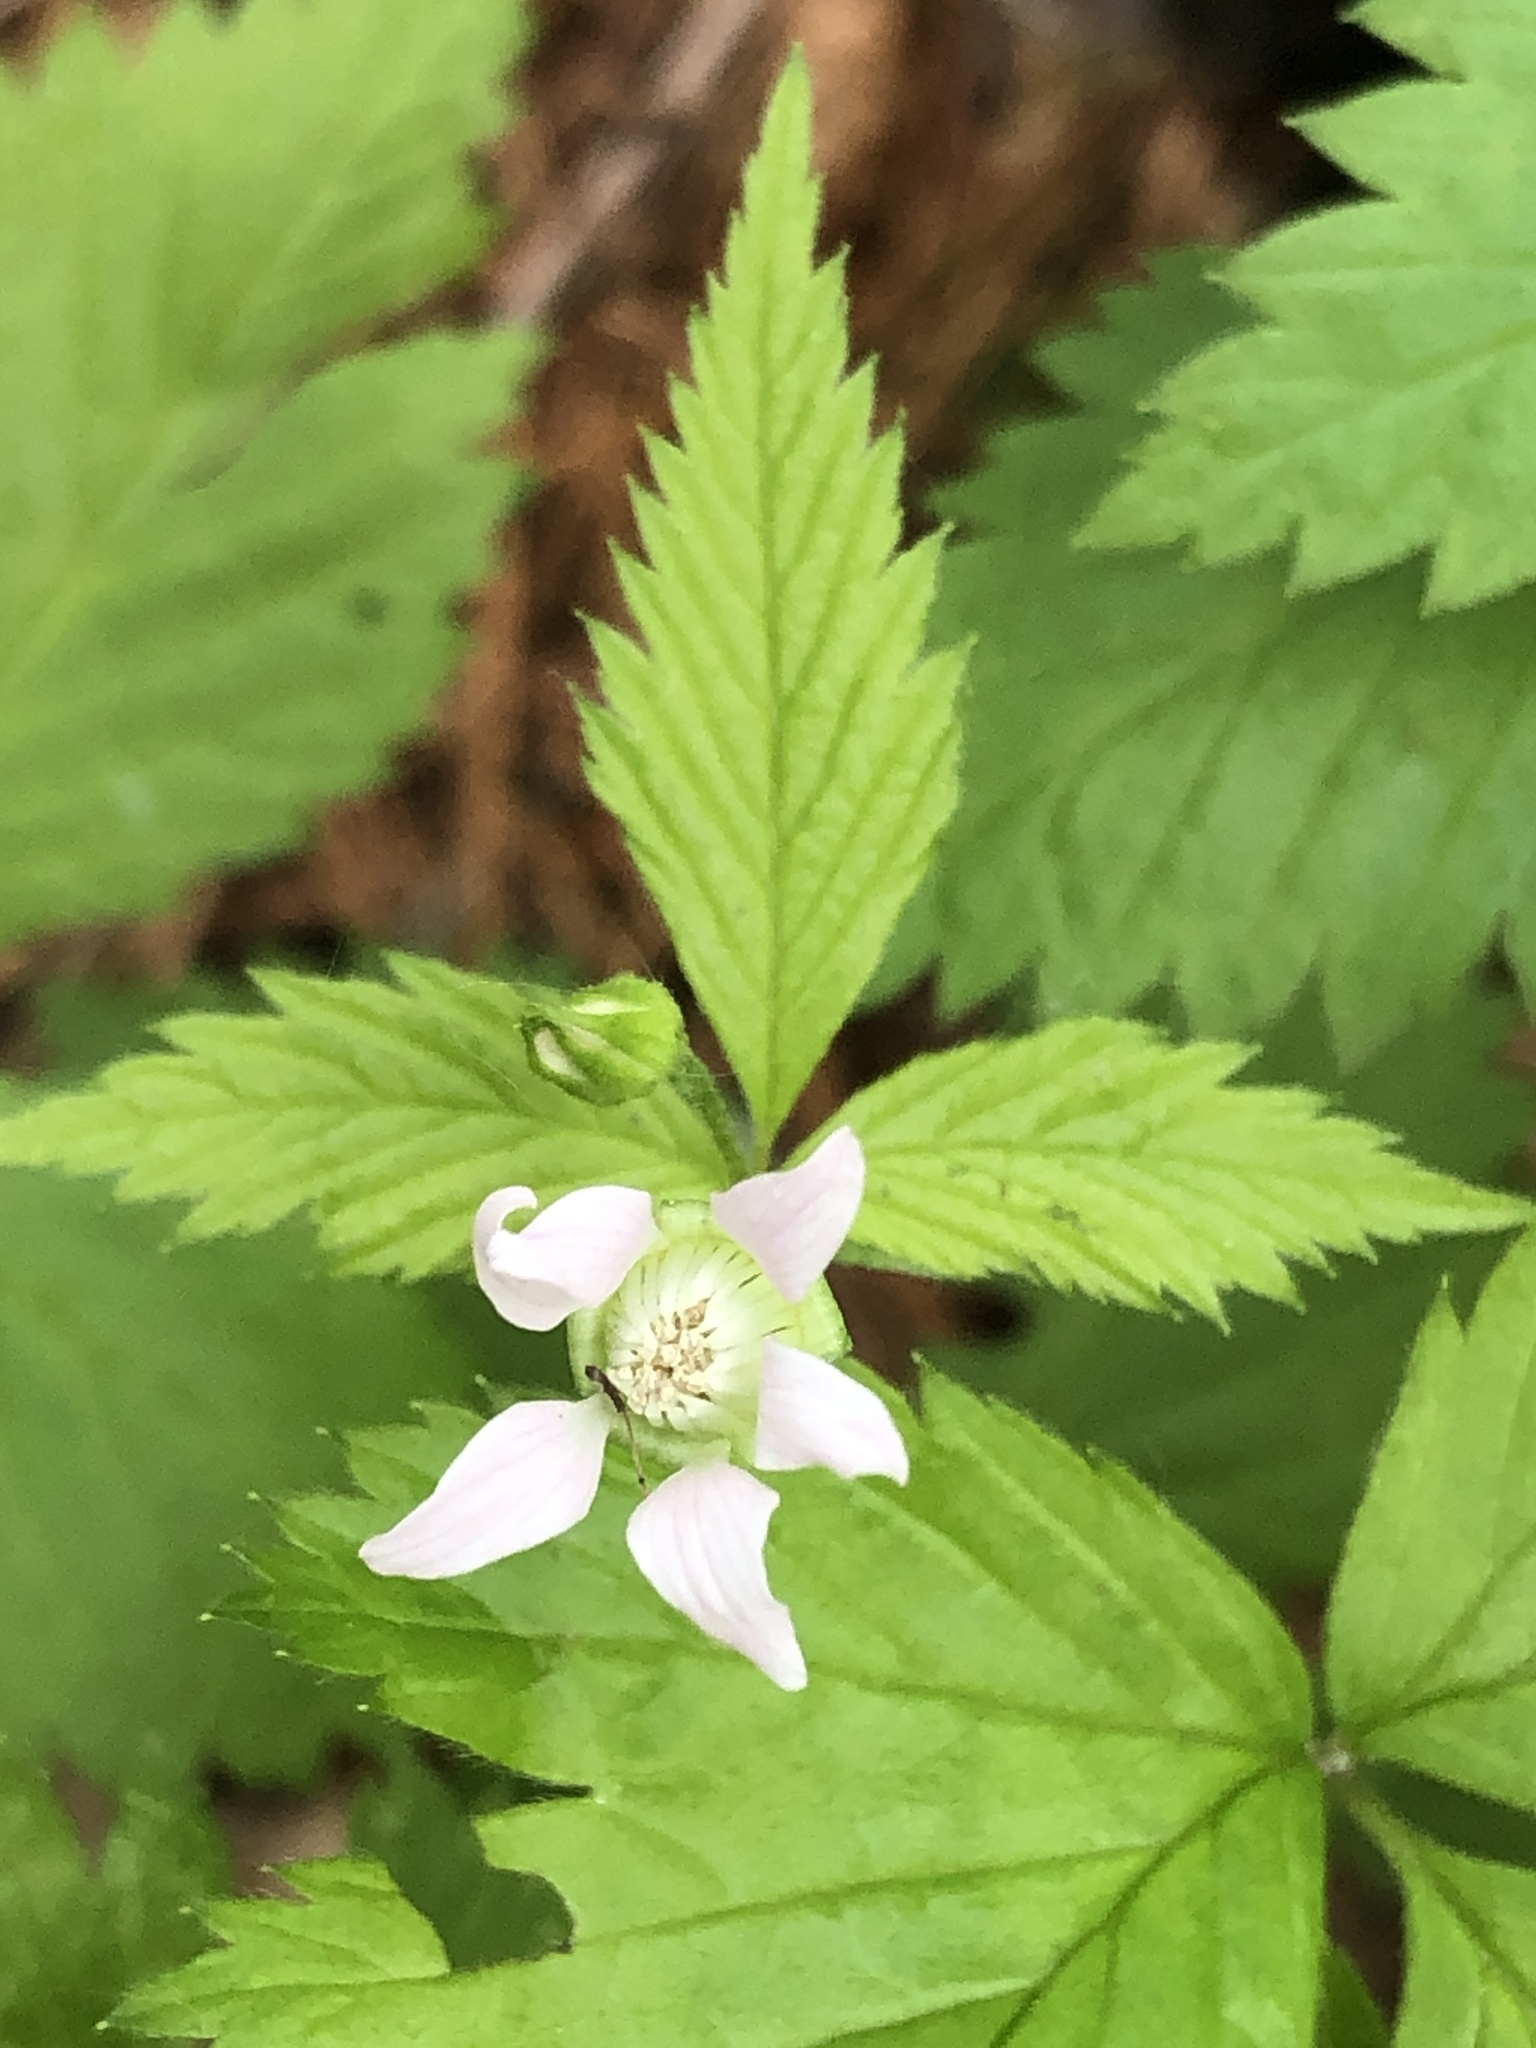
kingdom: Plantae
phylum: Tracheophyta
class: Magnoliopsida
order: Rosales
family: Rosaceae
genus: Rubus
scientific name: Rubus pubescens
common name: Dwarf raspberry
